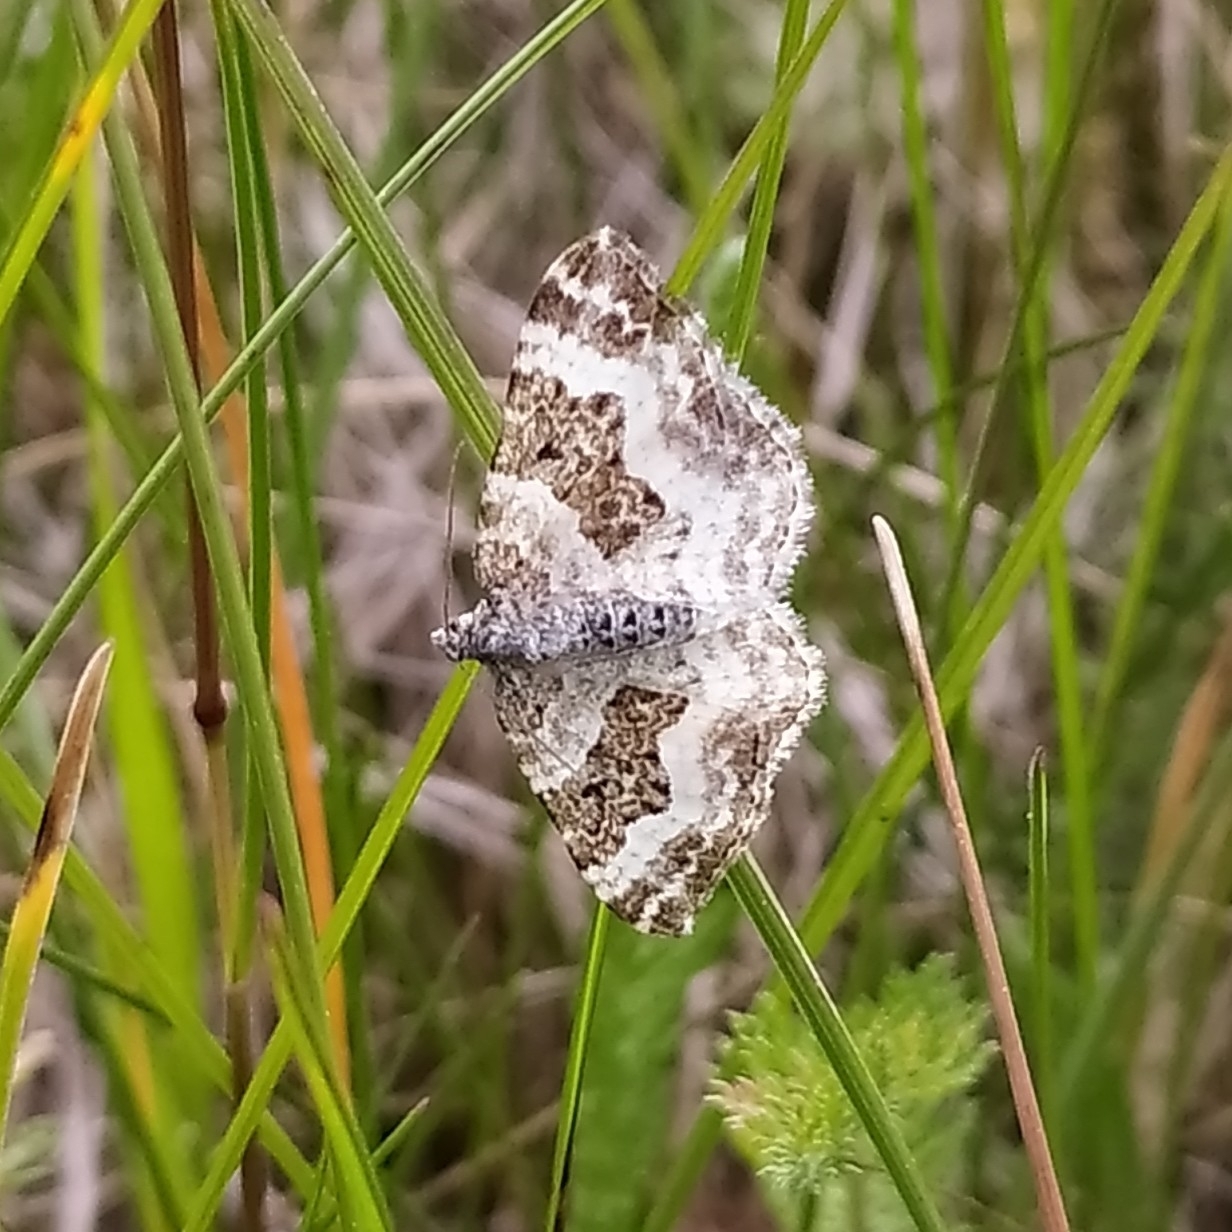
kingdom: Animalia
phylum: Arthropoda
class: Insecta
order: Lepidoptera
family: Geometridae
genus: Epirrhoe
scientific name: Epirrhoe alternata
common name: Common carpet
